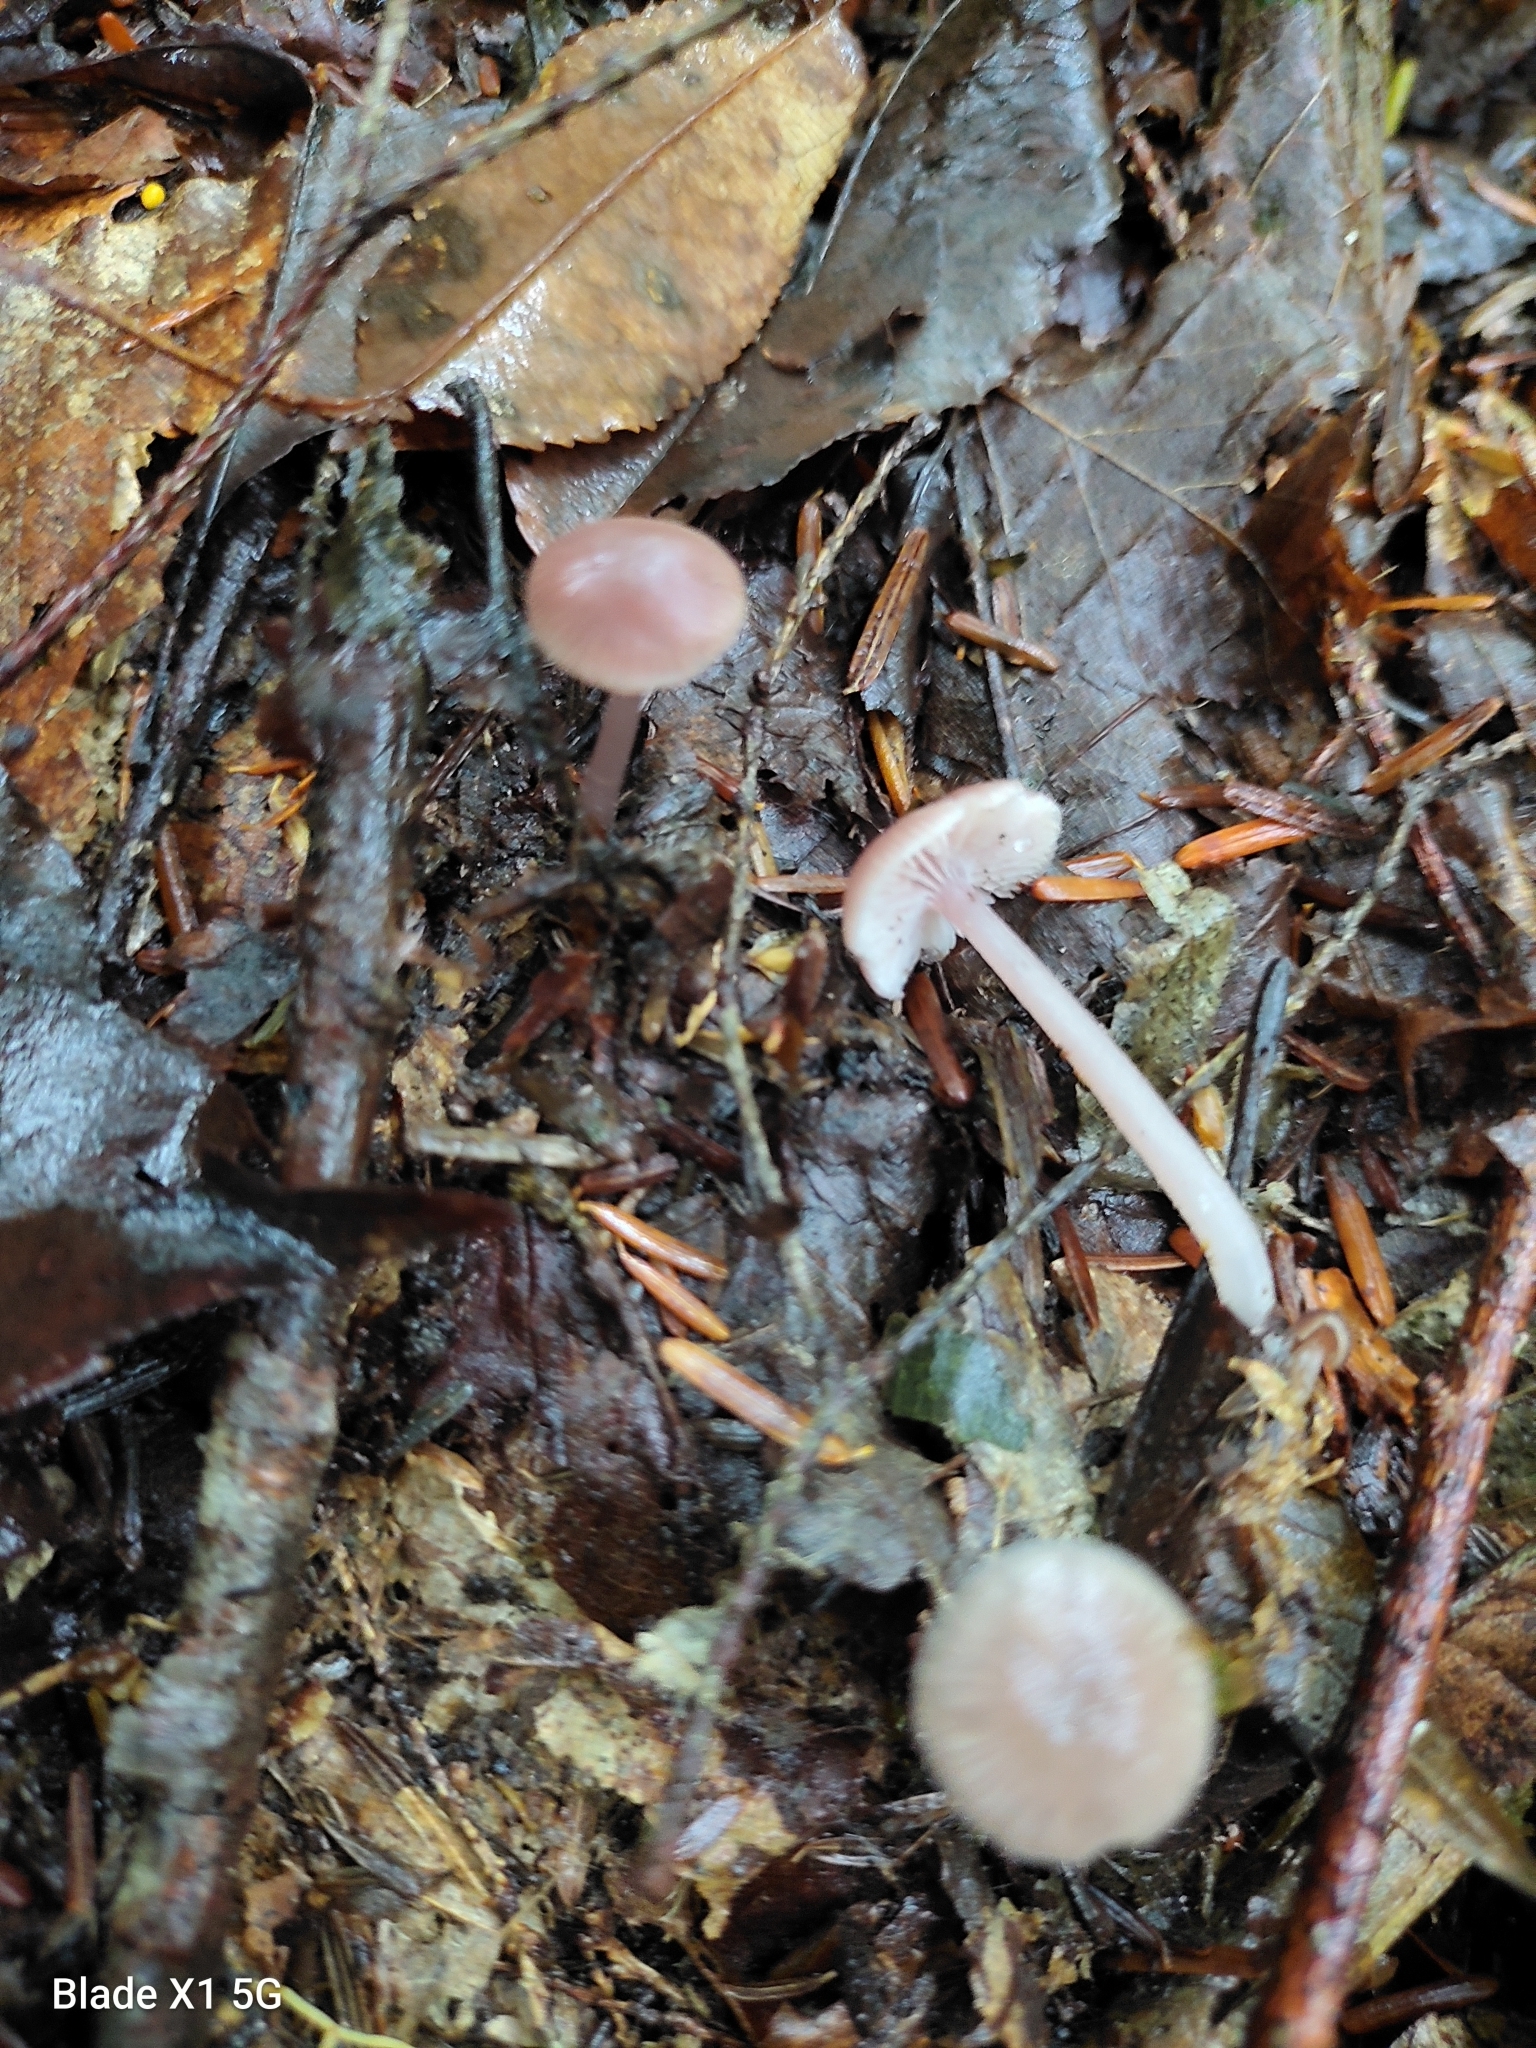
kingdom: Fungi
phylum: Basidiomycota
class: Agaricomycetes
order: Agaricales
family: Mycenaceae
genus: Mycena
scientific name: Mycena pearsoniana
